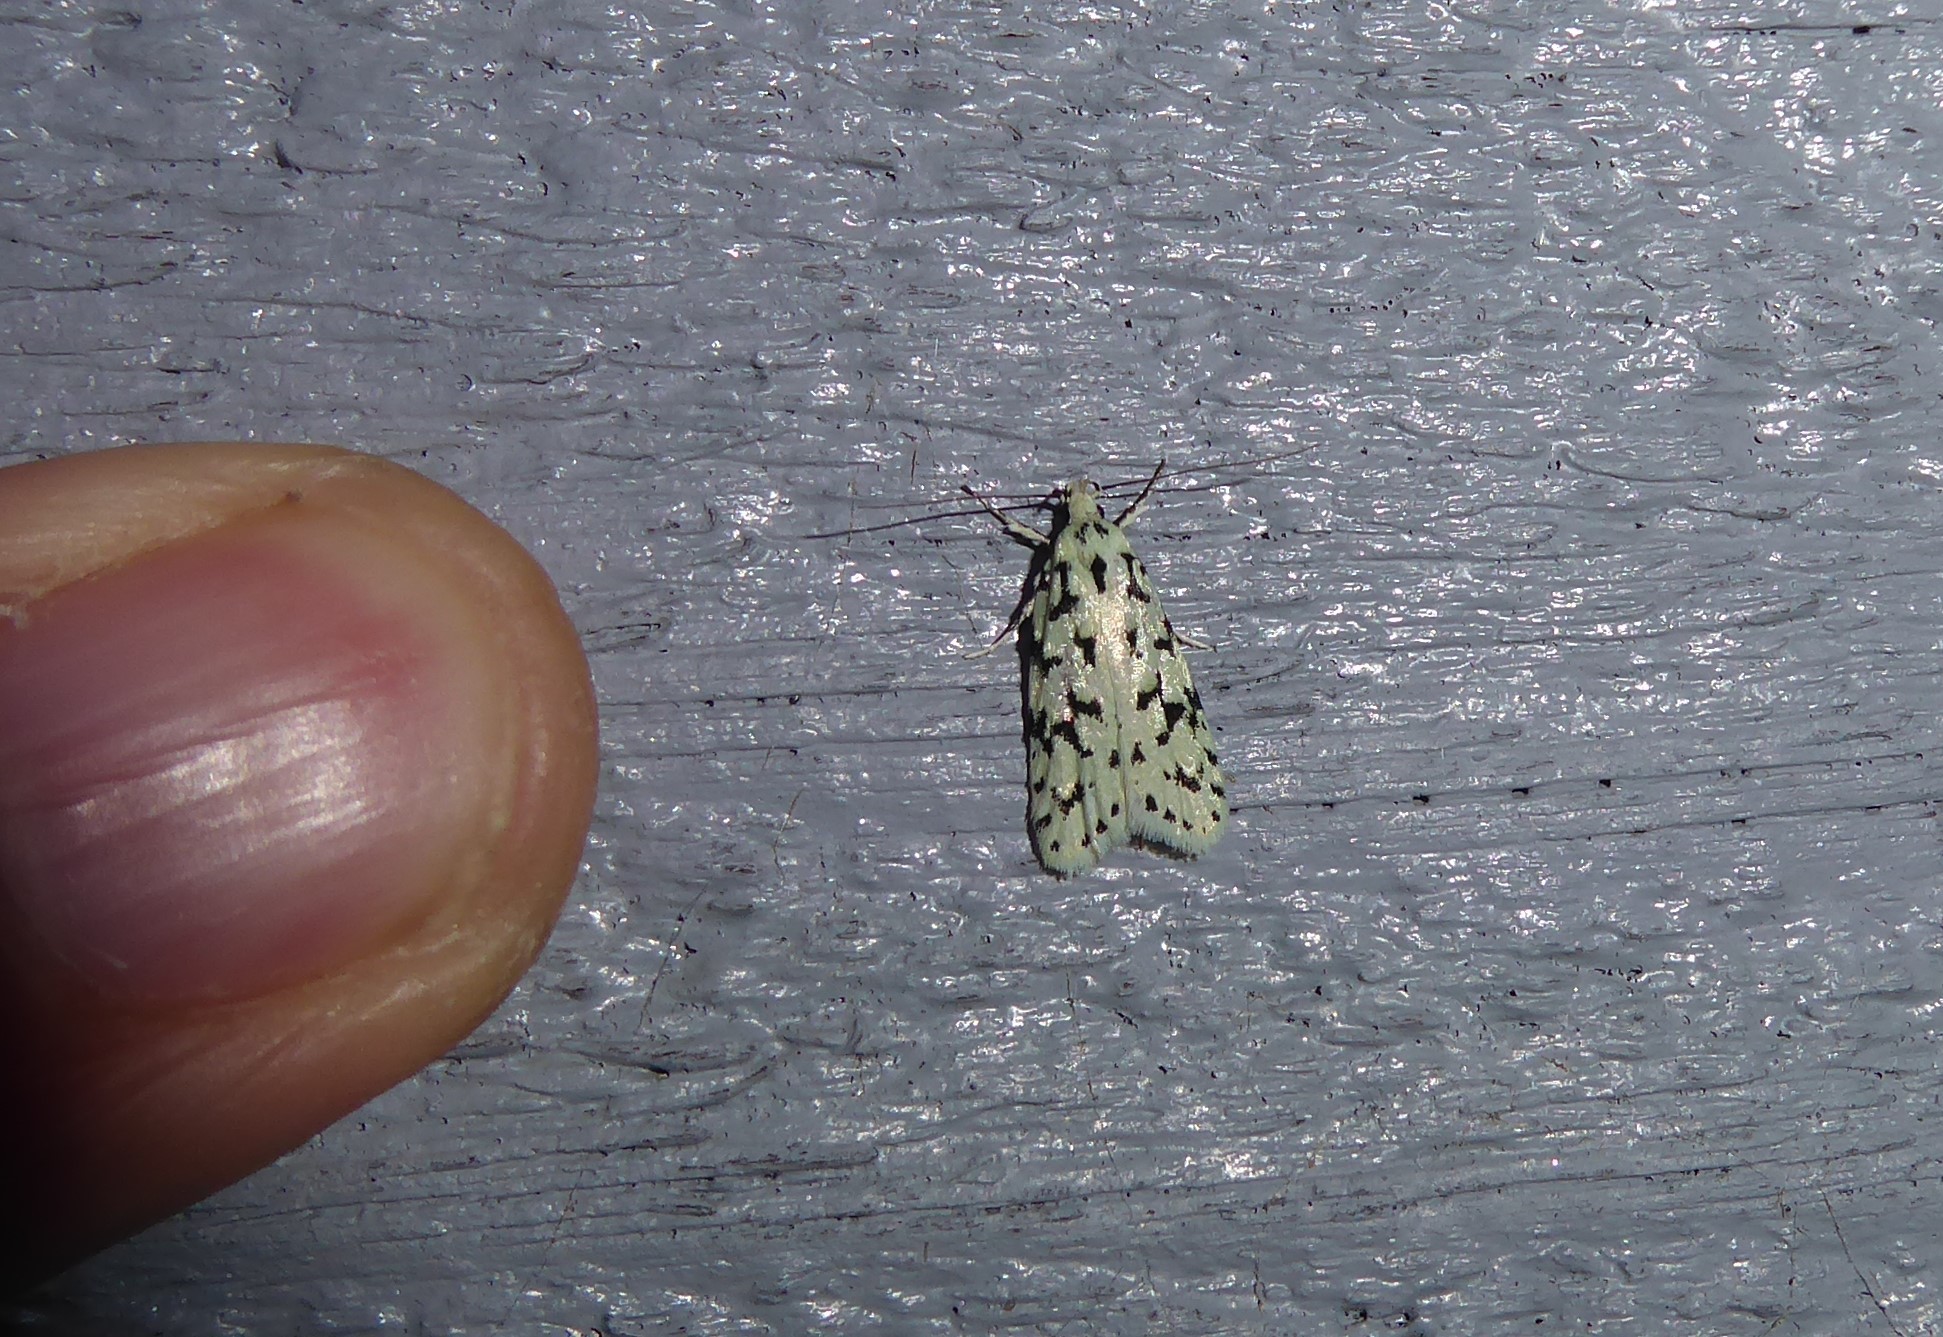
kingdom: Animalia
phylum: Arthropoda
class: Insecta
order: Lepidoptera
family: Oecophoridae
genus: Izatha
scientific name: Izatha huttoni
